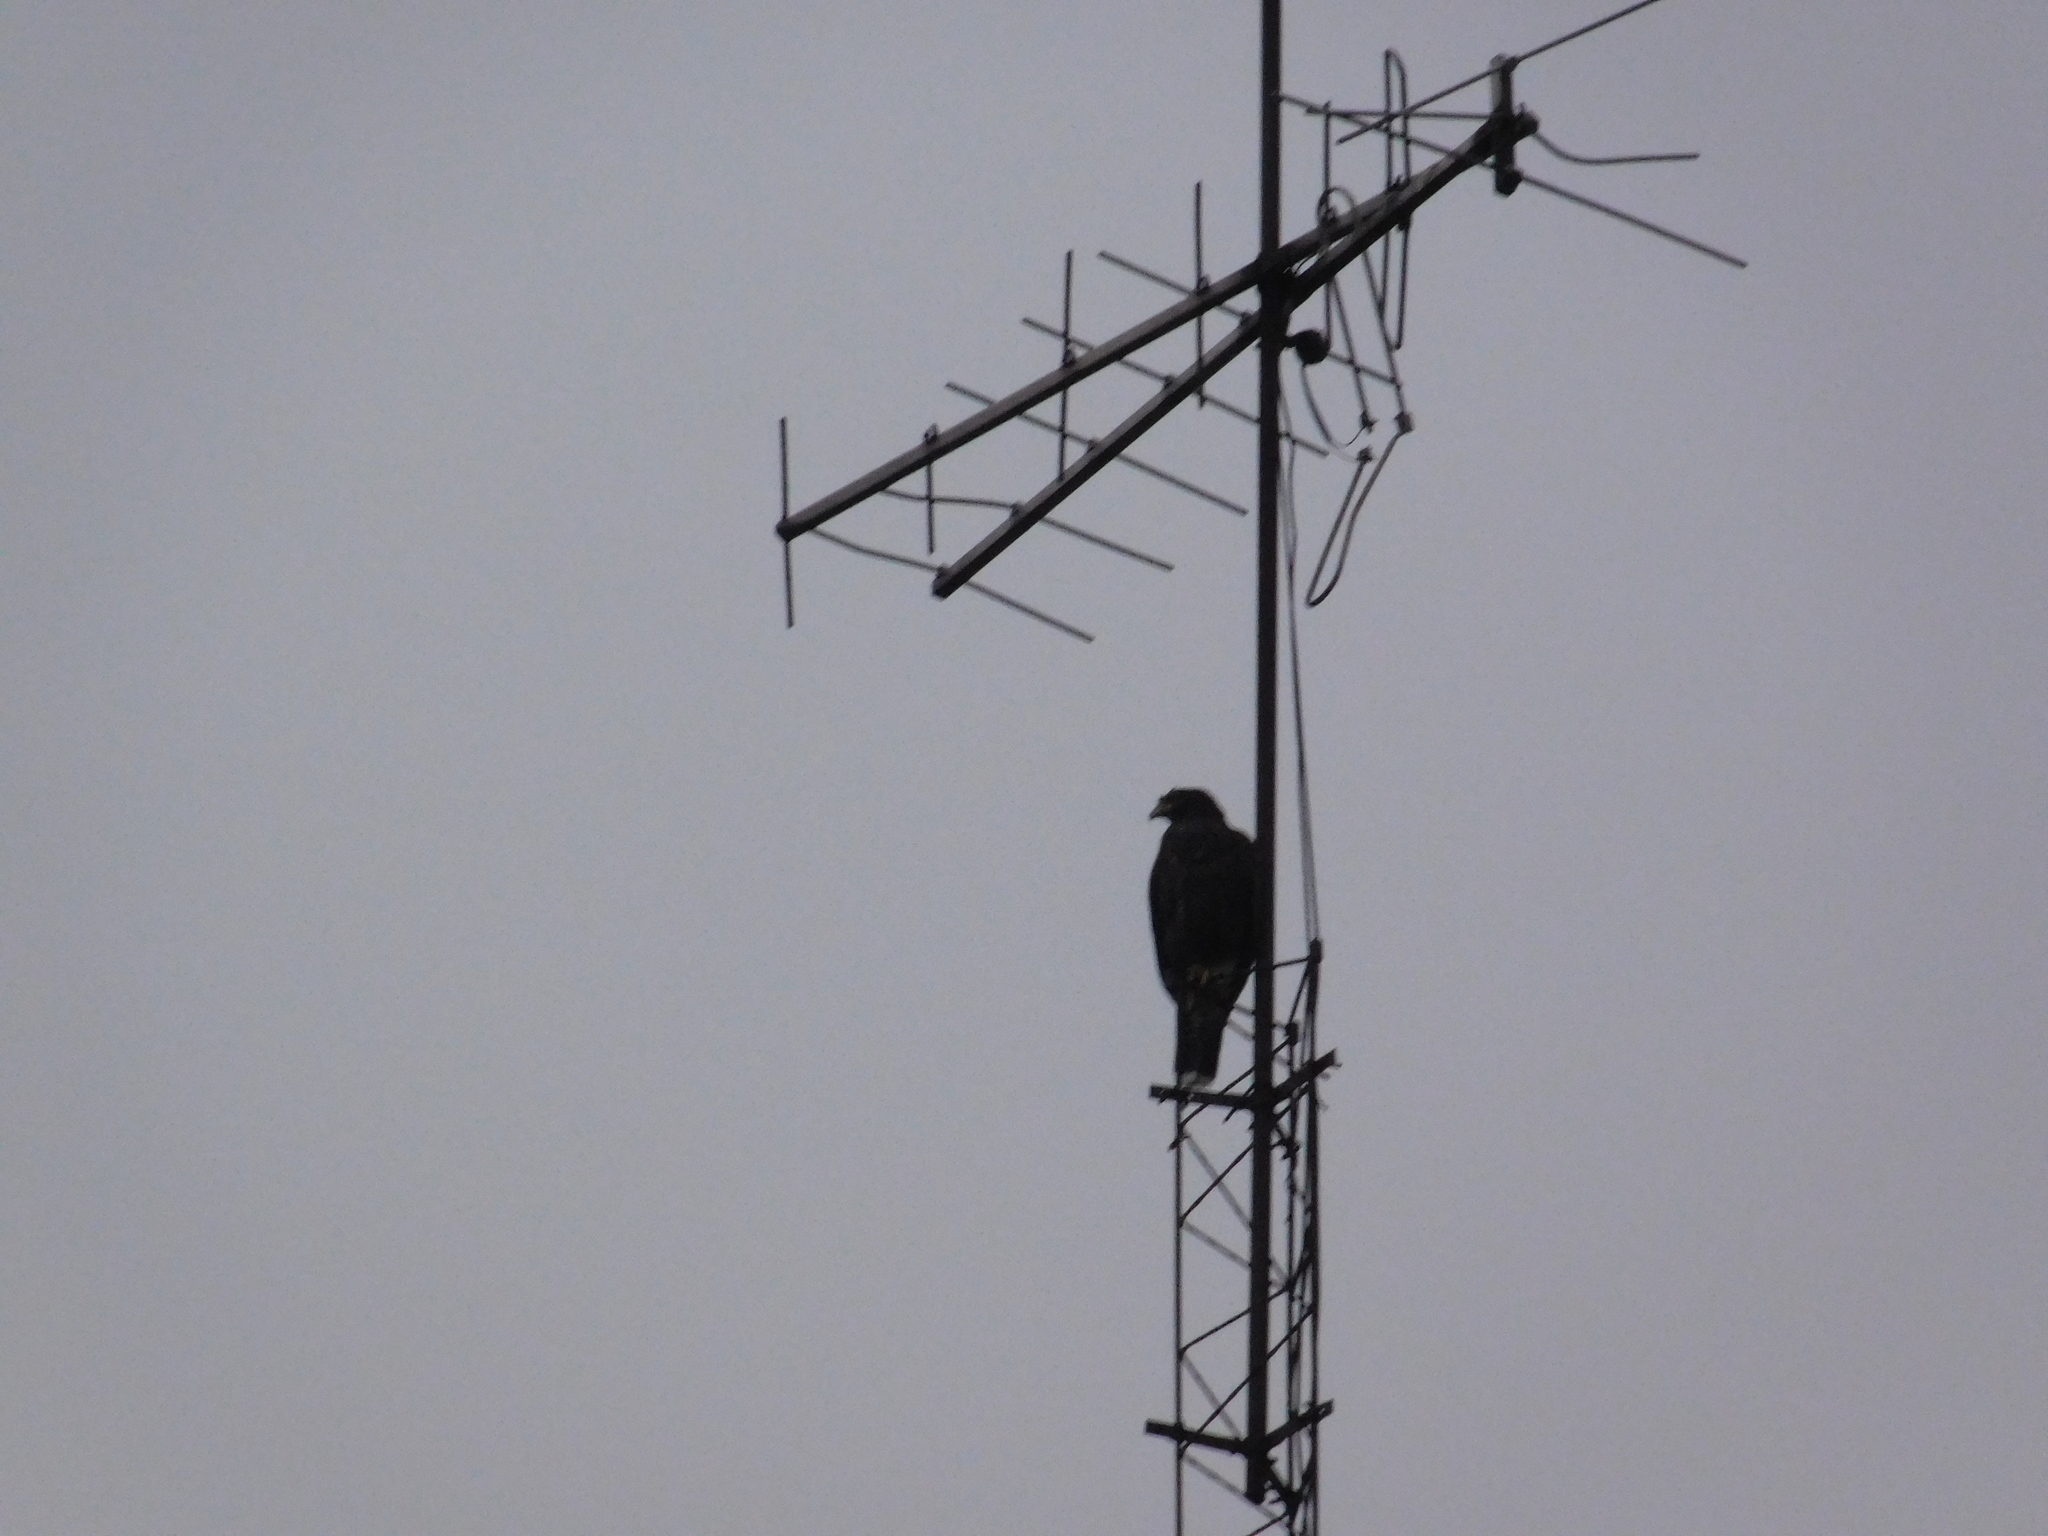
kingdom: Animalia
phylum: Chordata
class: Aves
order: Accipitriformes
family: Accipitridae
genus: Parabuteo
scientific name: Parabuteo unicinctus
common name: Harris's hawk
